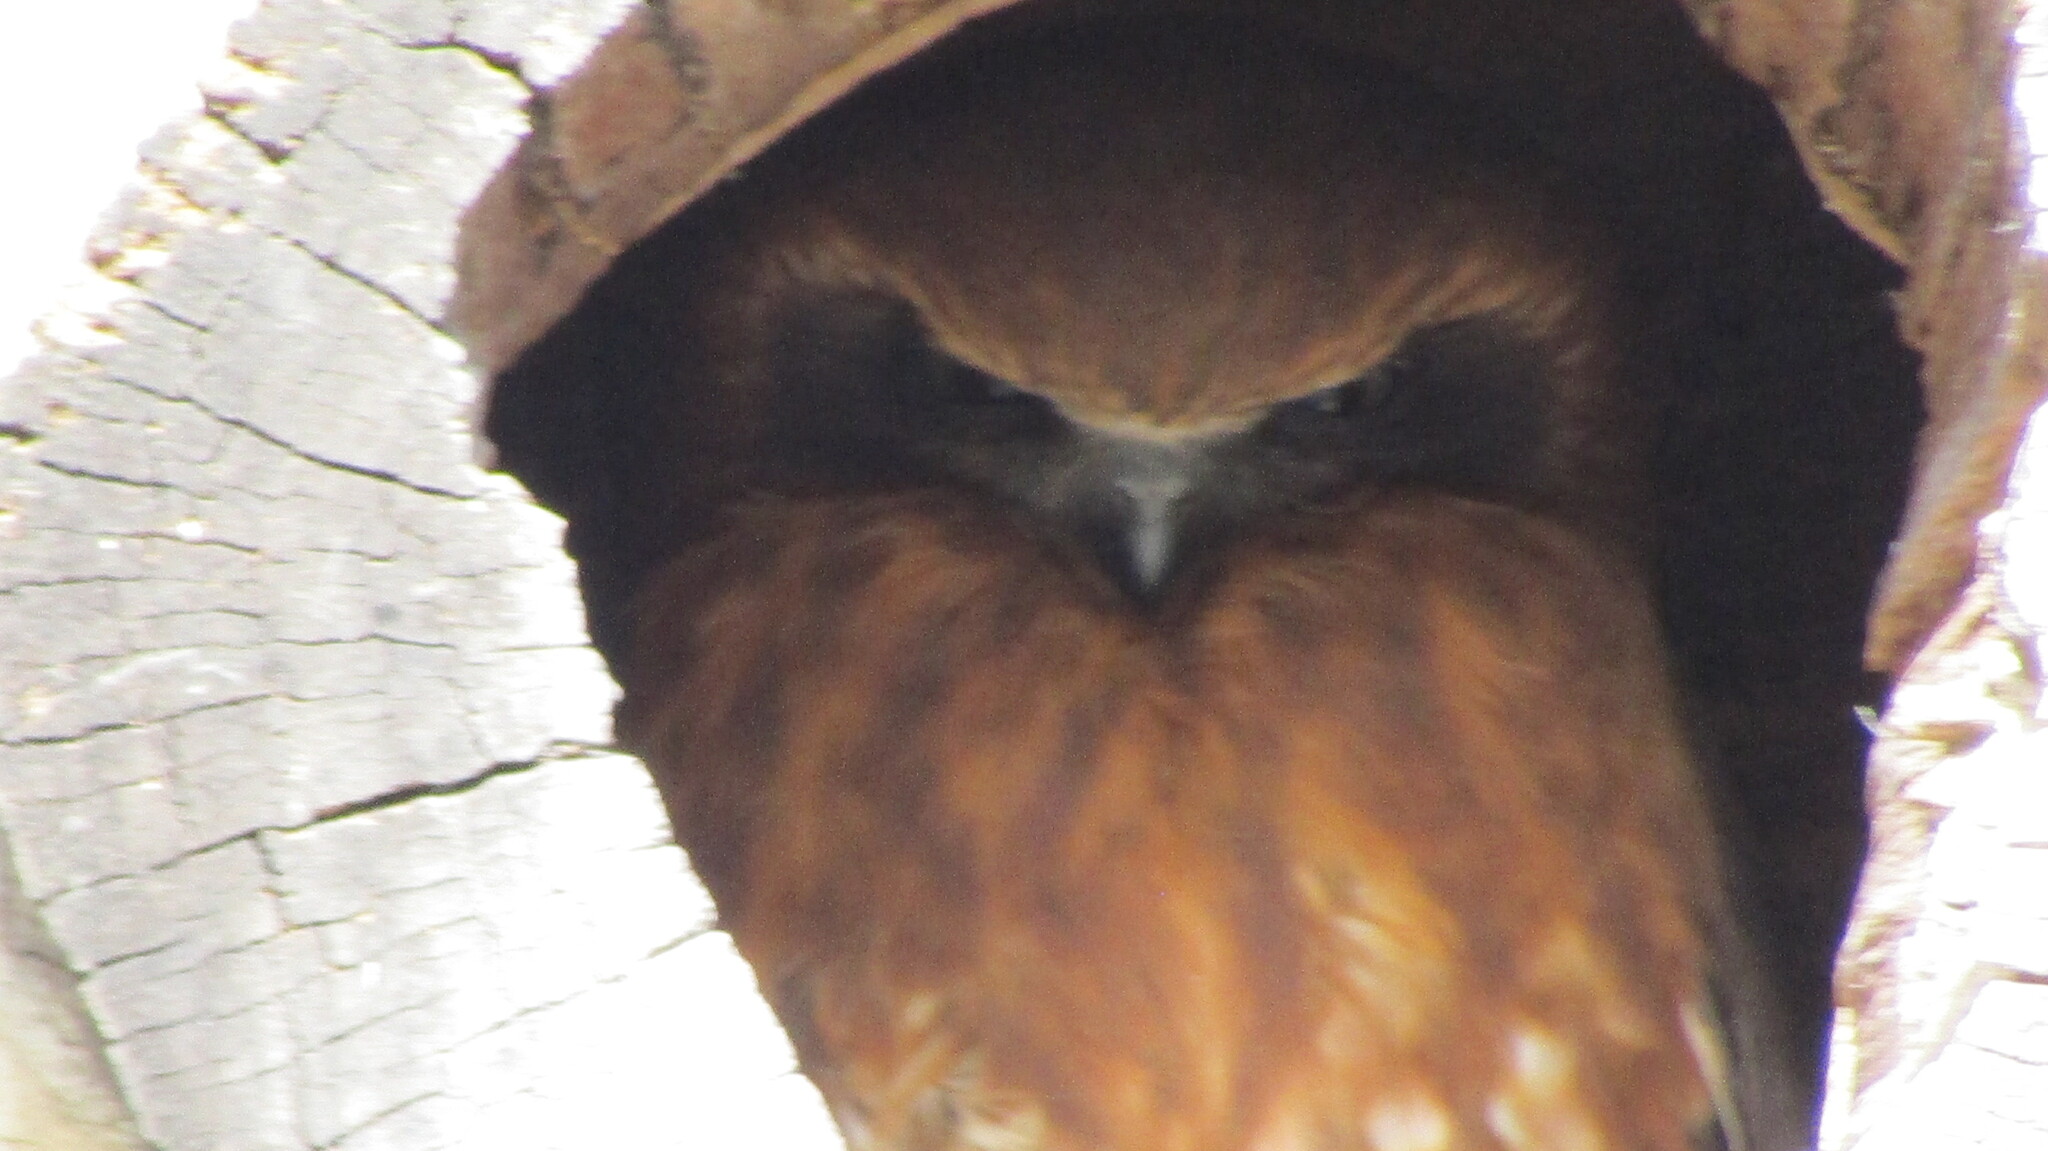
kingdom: Animalia
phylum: Chordata
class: Aves
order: Strigiformes
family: Strigidae
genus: Ninox
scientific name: Ninox boobook
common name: Southern boobook
